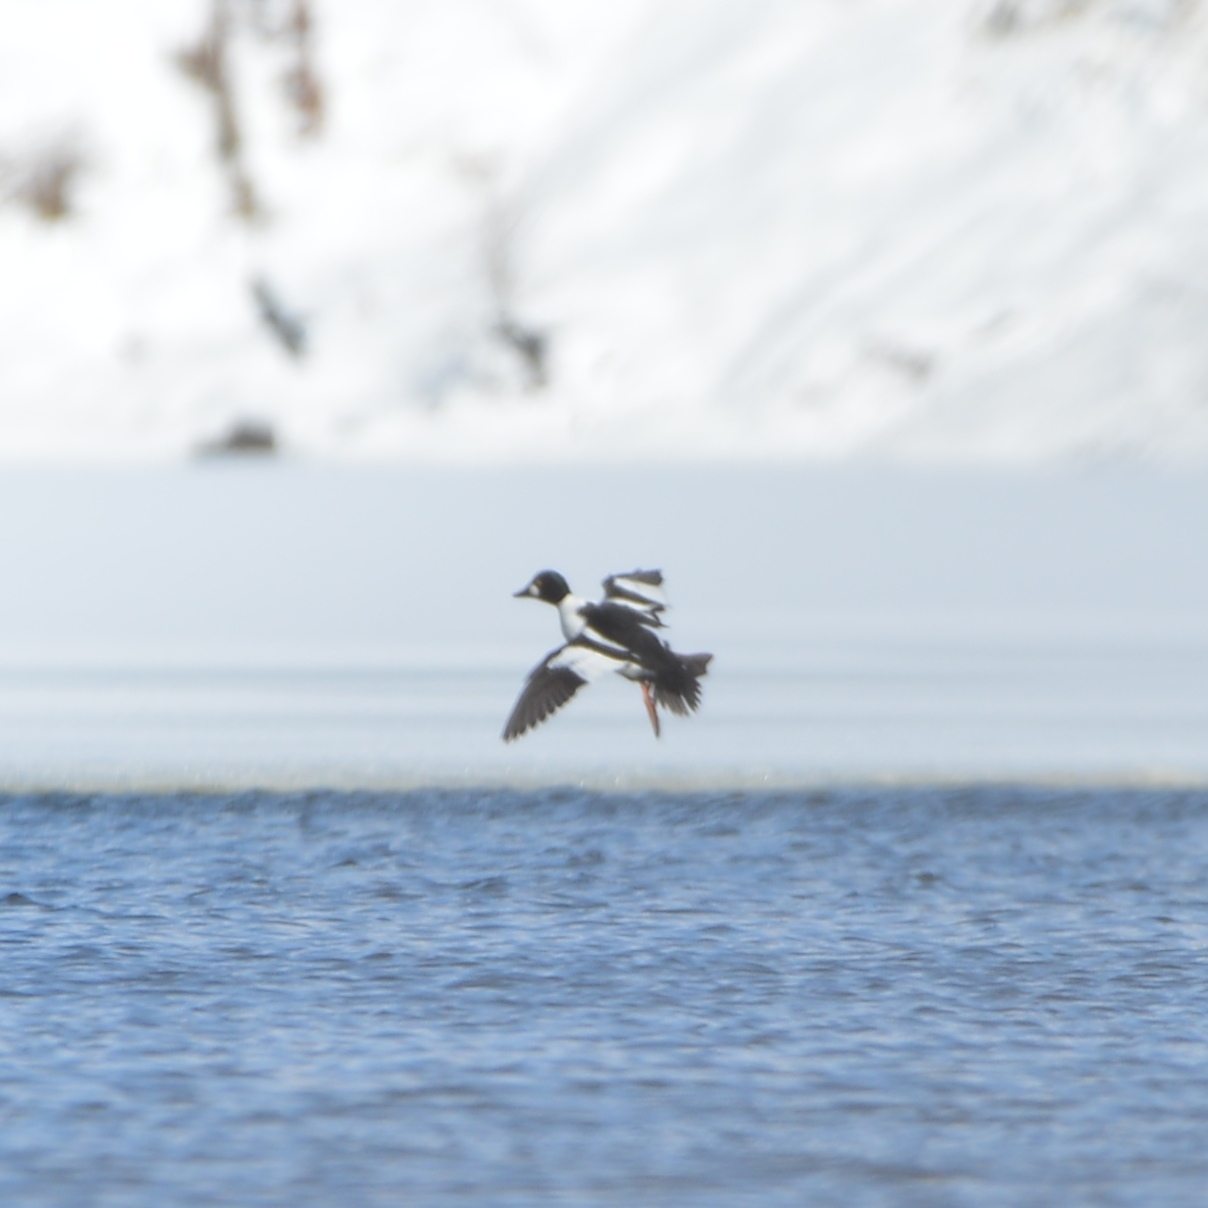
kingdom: Animalia
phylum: Chordata
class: Aves
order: Anseriformes
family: Anatidae
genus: Bucephala
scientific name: Bucephala clangula
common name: Common goldeneye
